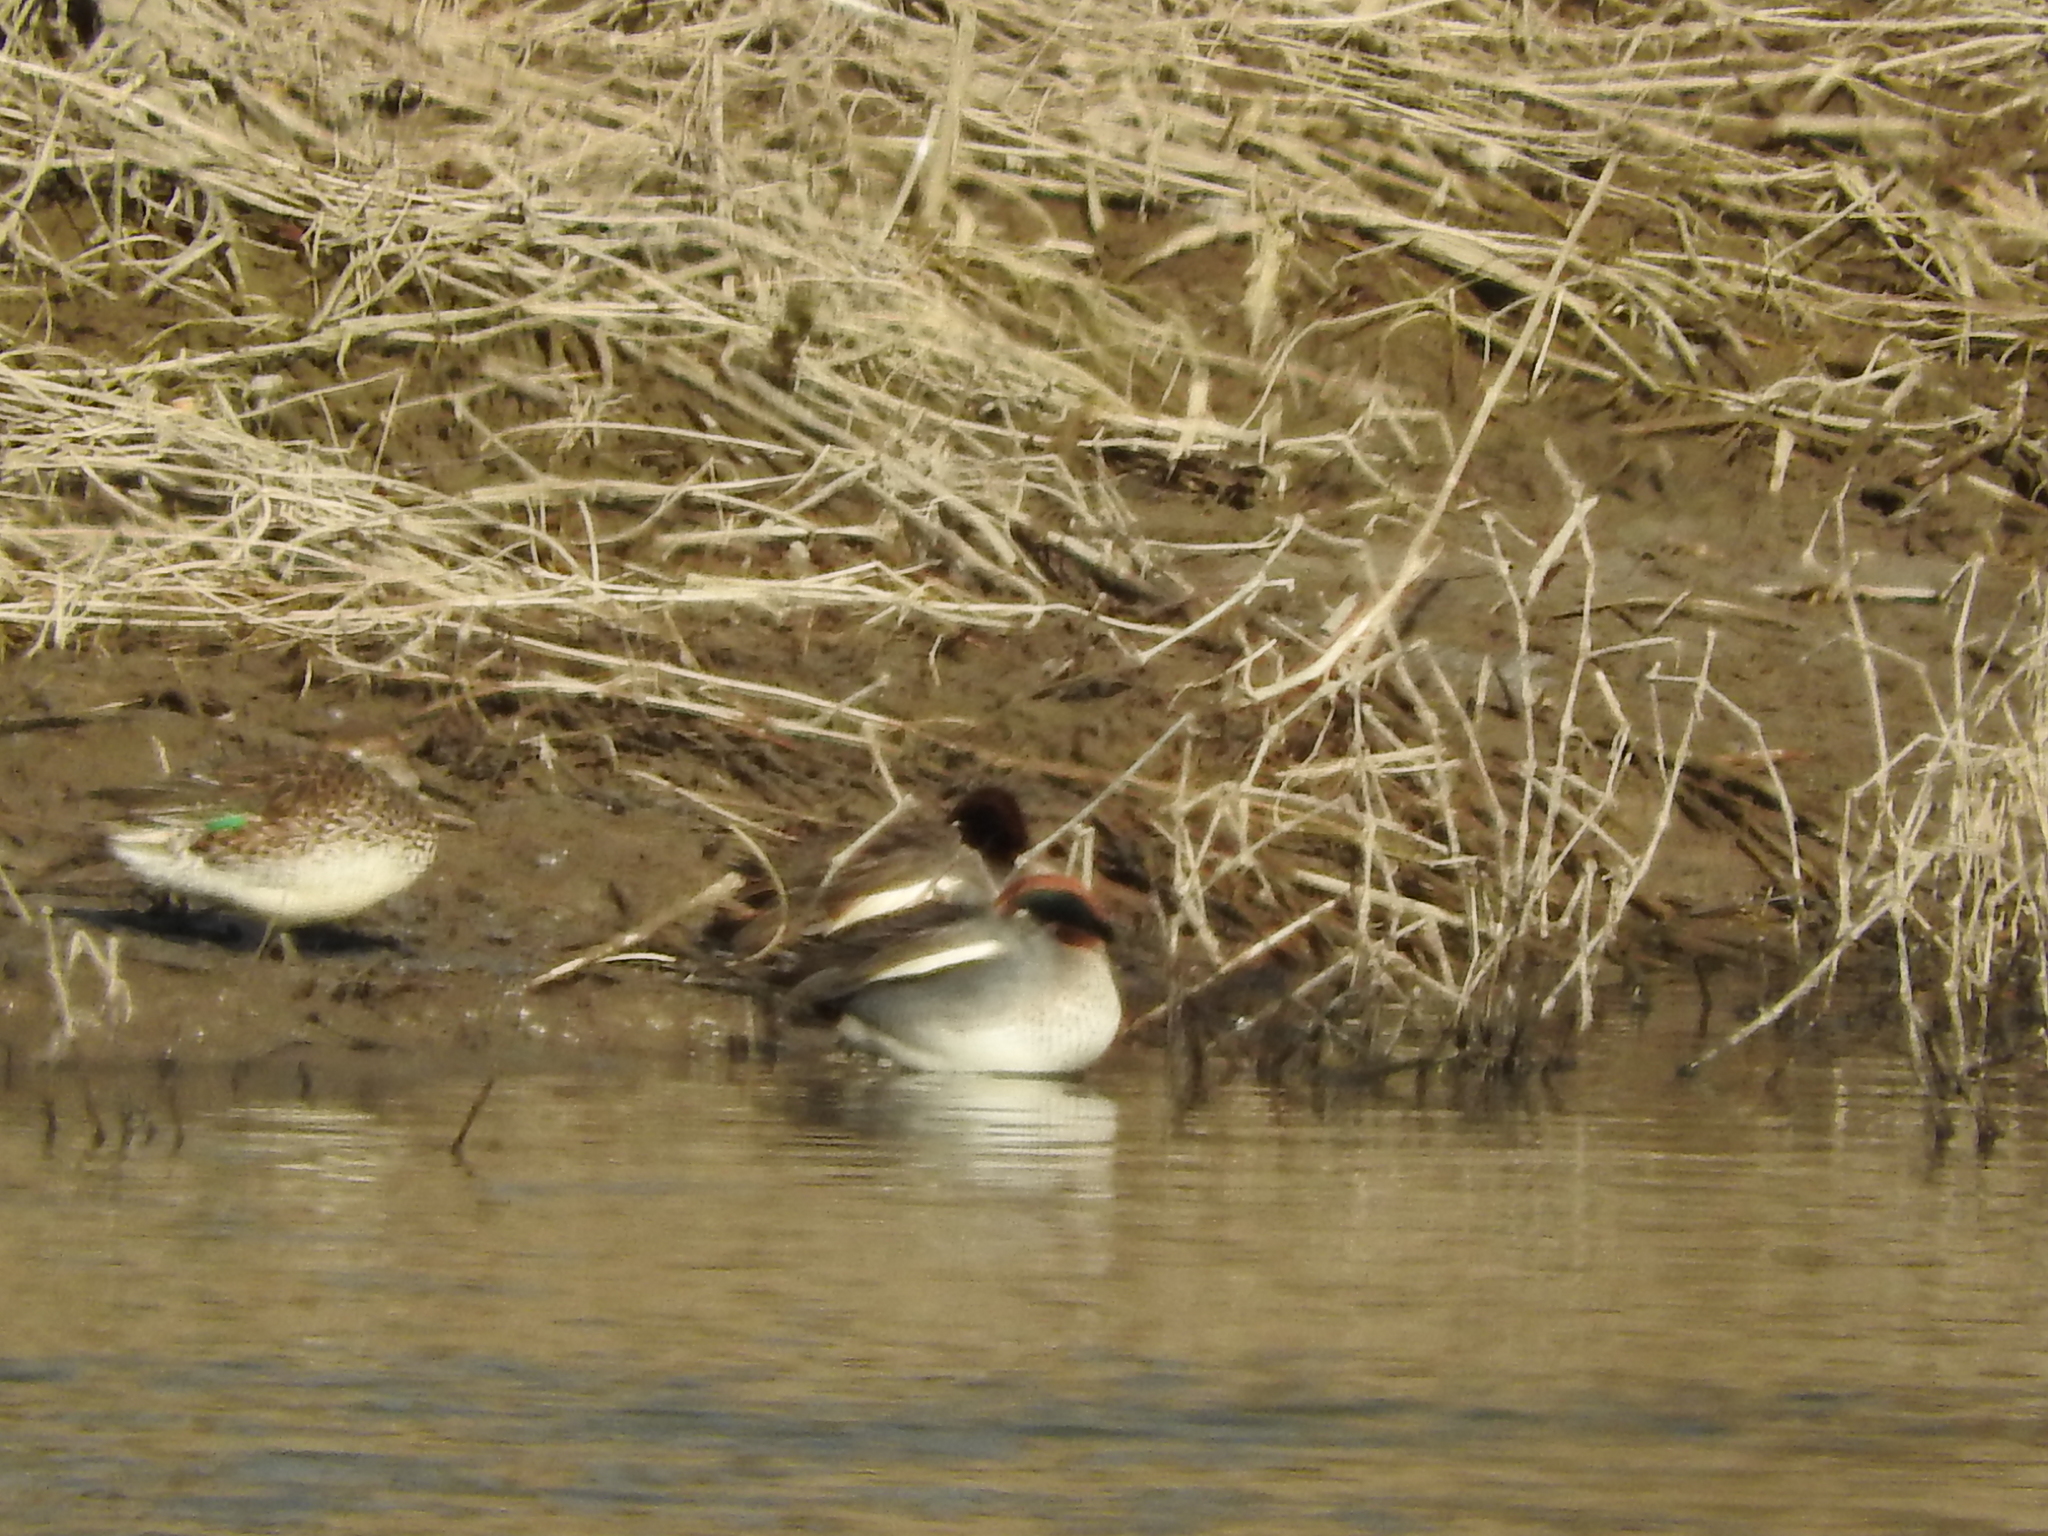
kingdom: Animalia
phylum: Chordata
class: Aves
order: Anseriformes
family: Anatidae
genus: Anas
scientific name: Anas crecca
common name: Eurasian teal
